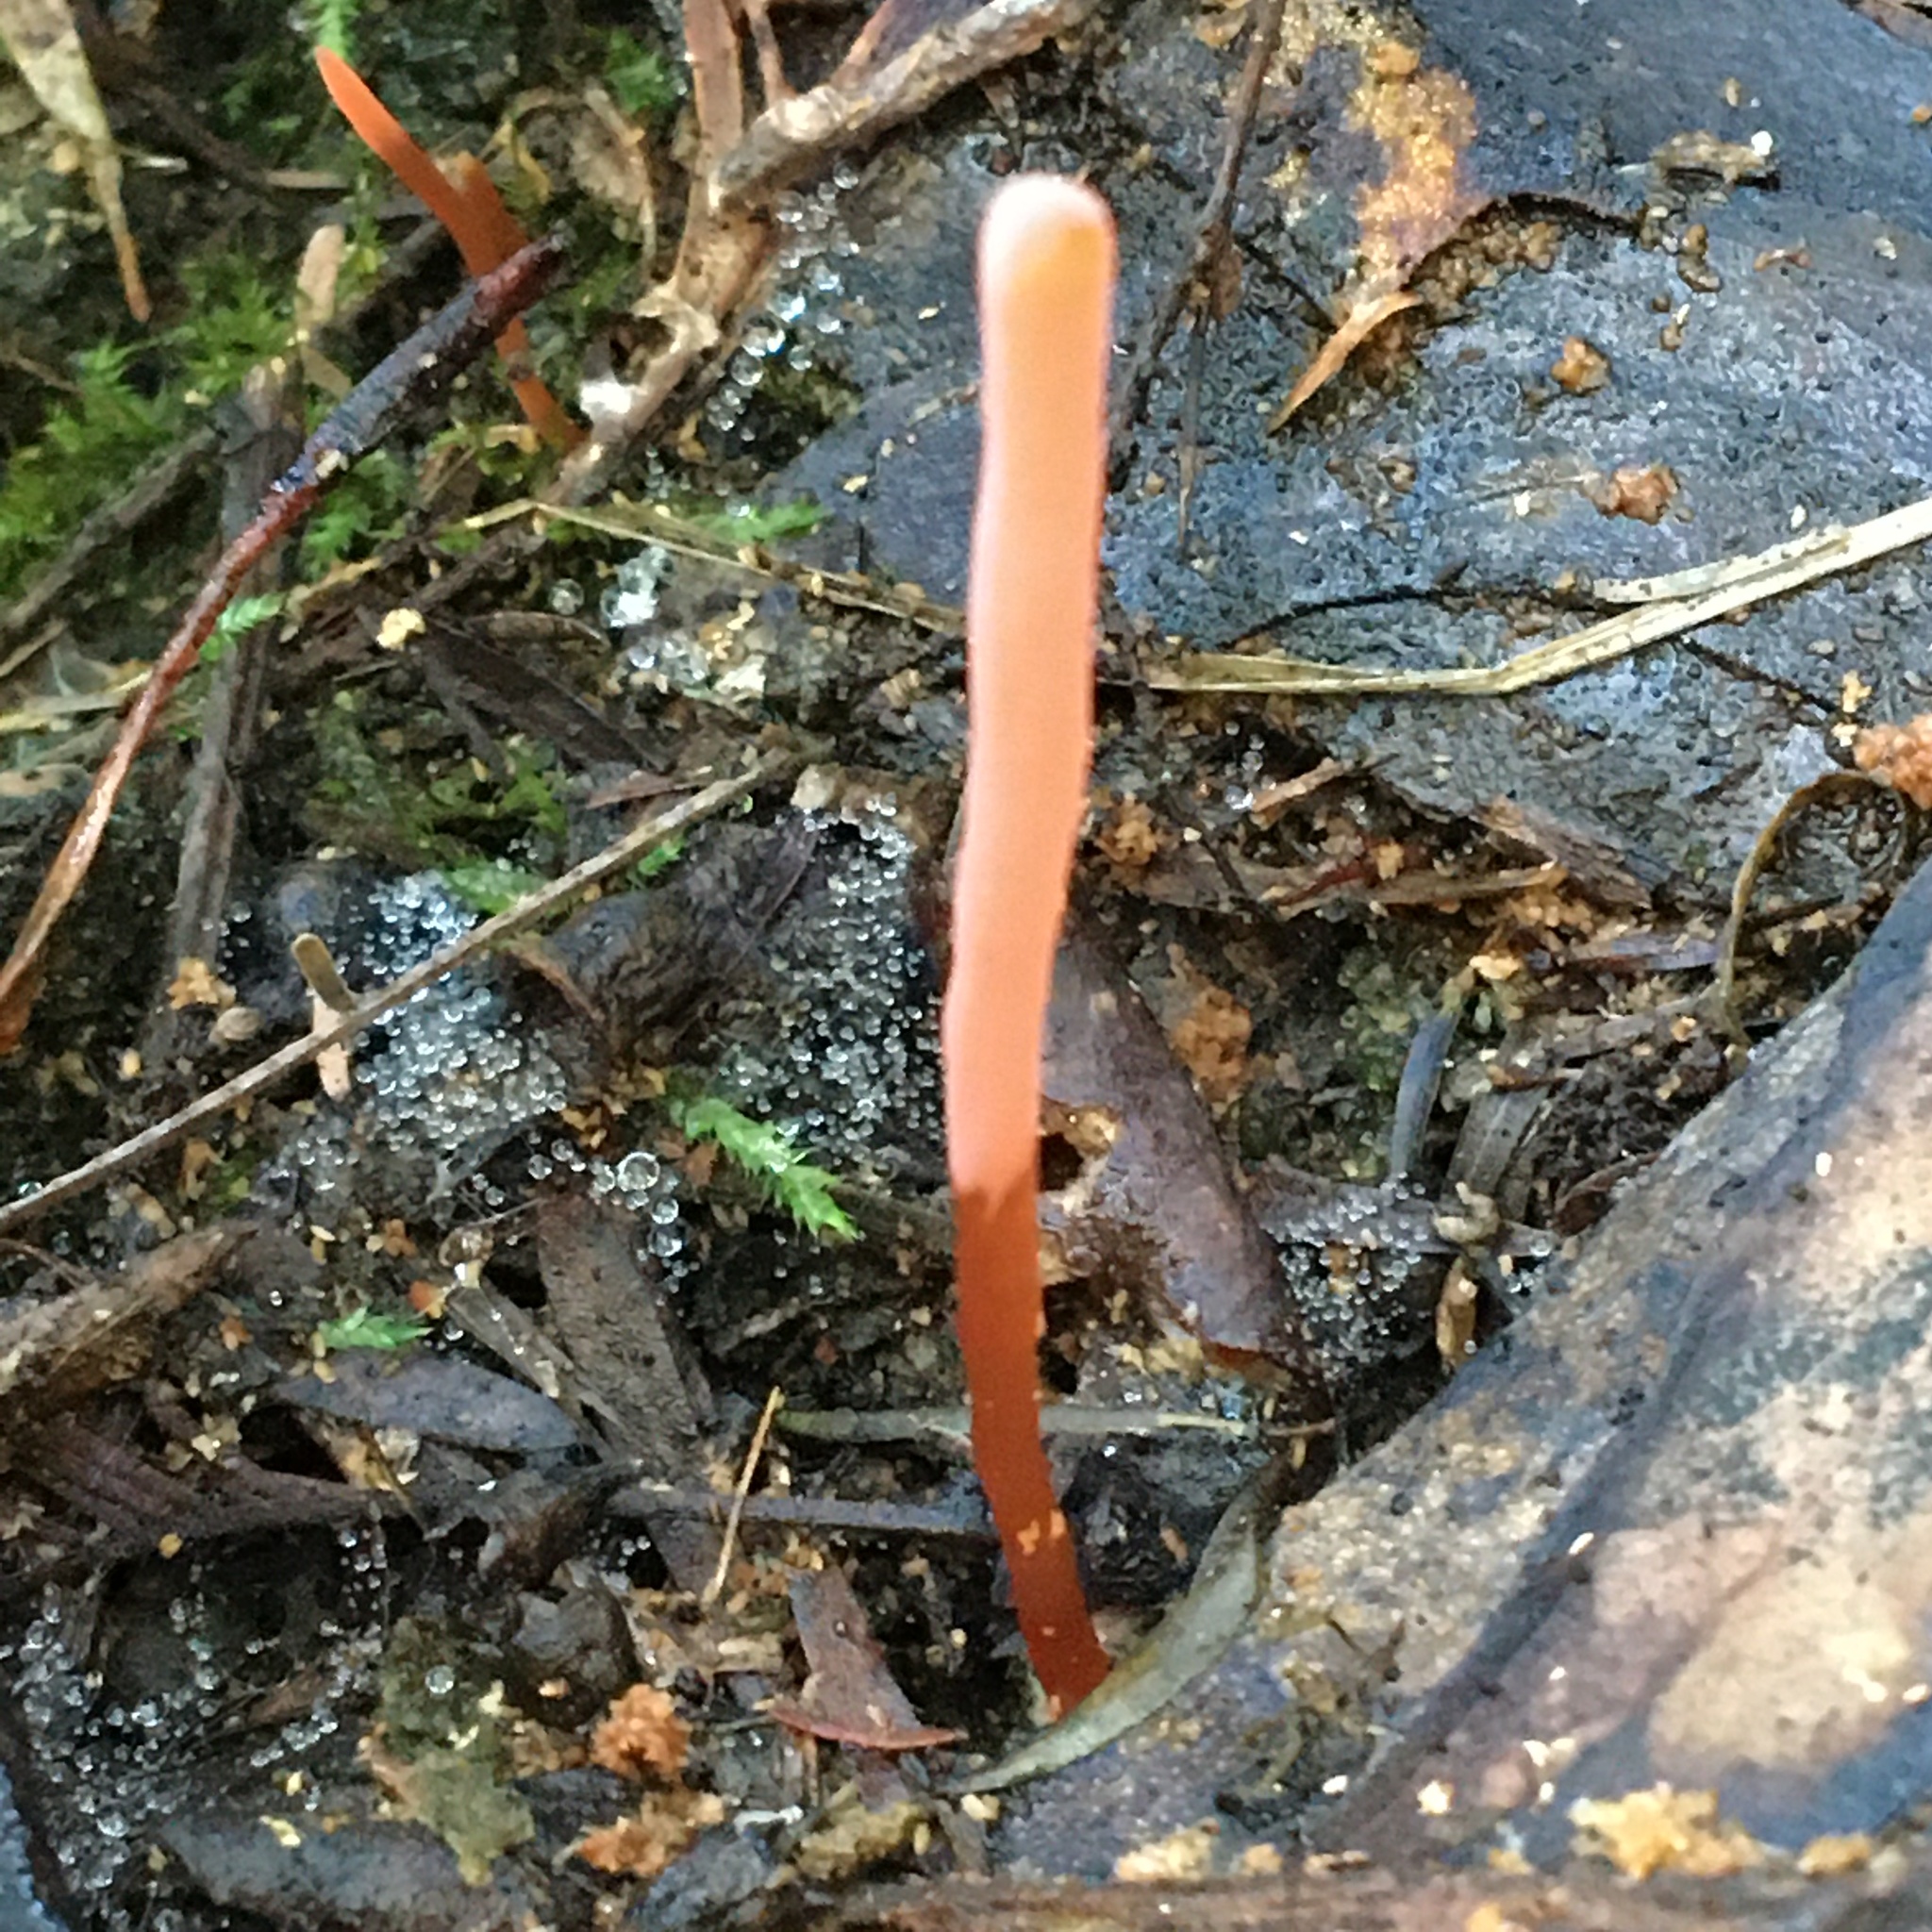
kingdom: Fungi
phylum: Basidiomycota
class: Agaricomycetes
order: Agaricales
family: Clavariaceae
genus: Clavulinopsis
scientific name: Clavulinopsis corallinorosacea
